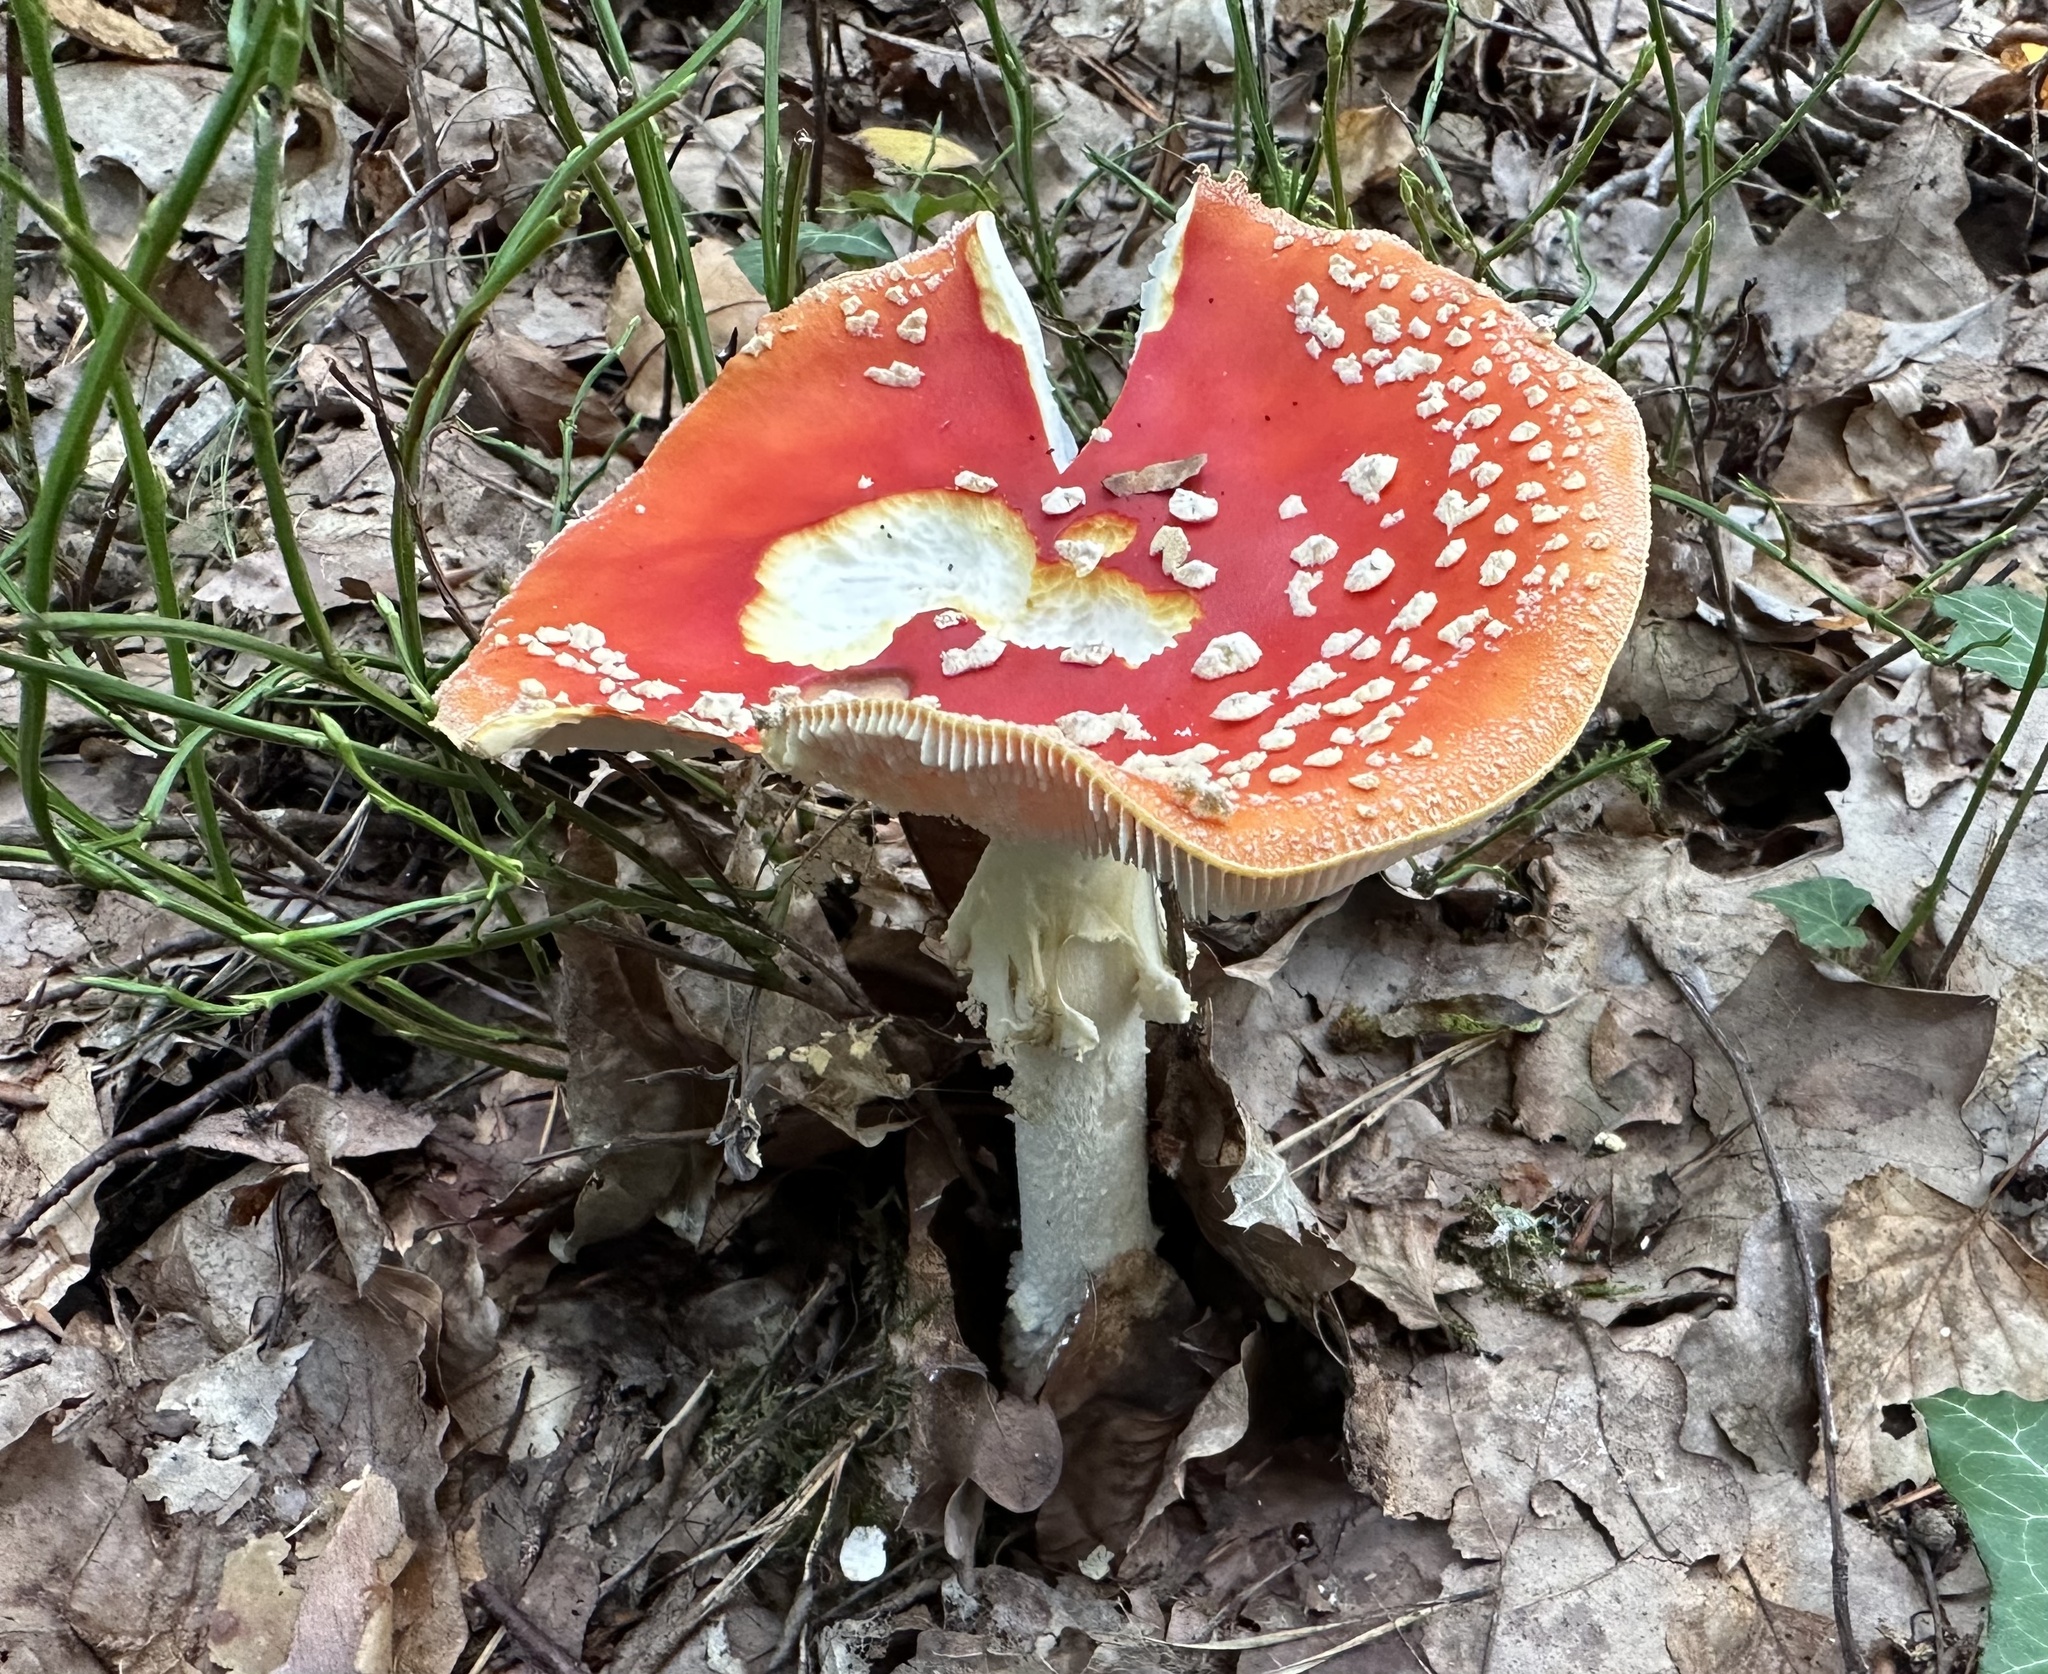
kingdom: Fungi
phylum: Basidiomycota
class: Agaricomycetes
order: Agaricales
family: Amanitaceae
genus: Amanita
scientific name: Amanita muscaria
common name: Fly agaric
